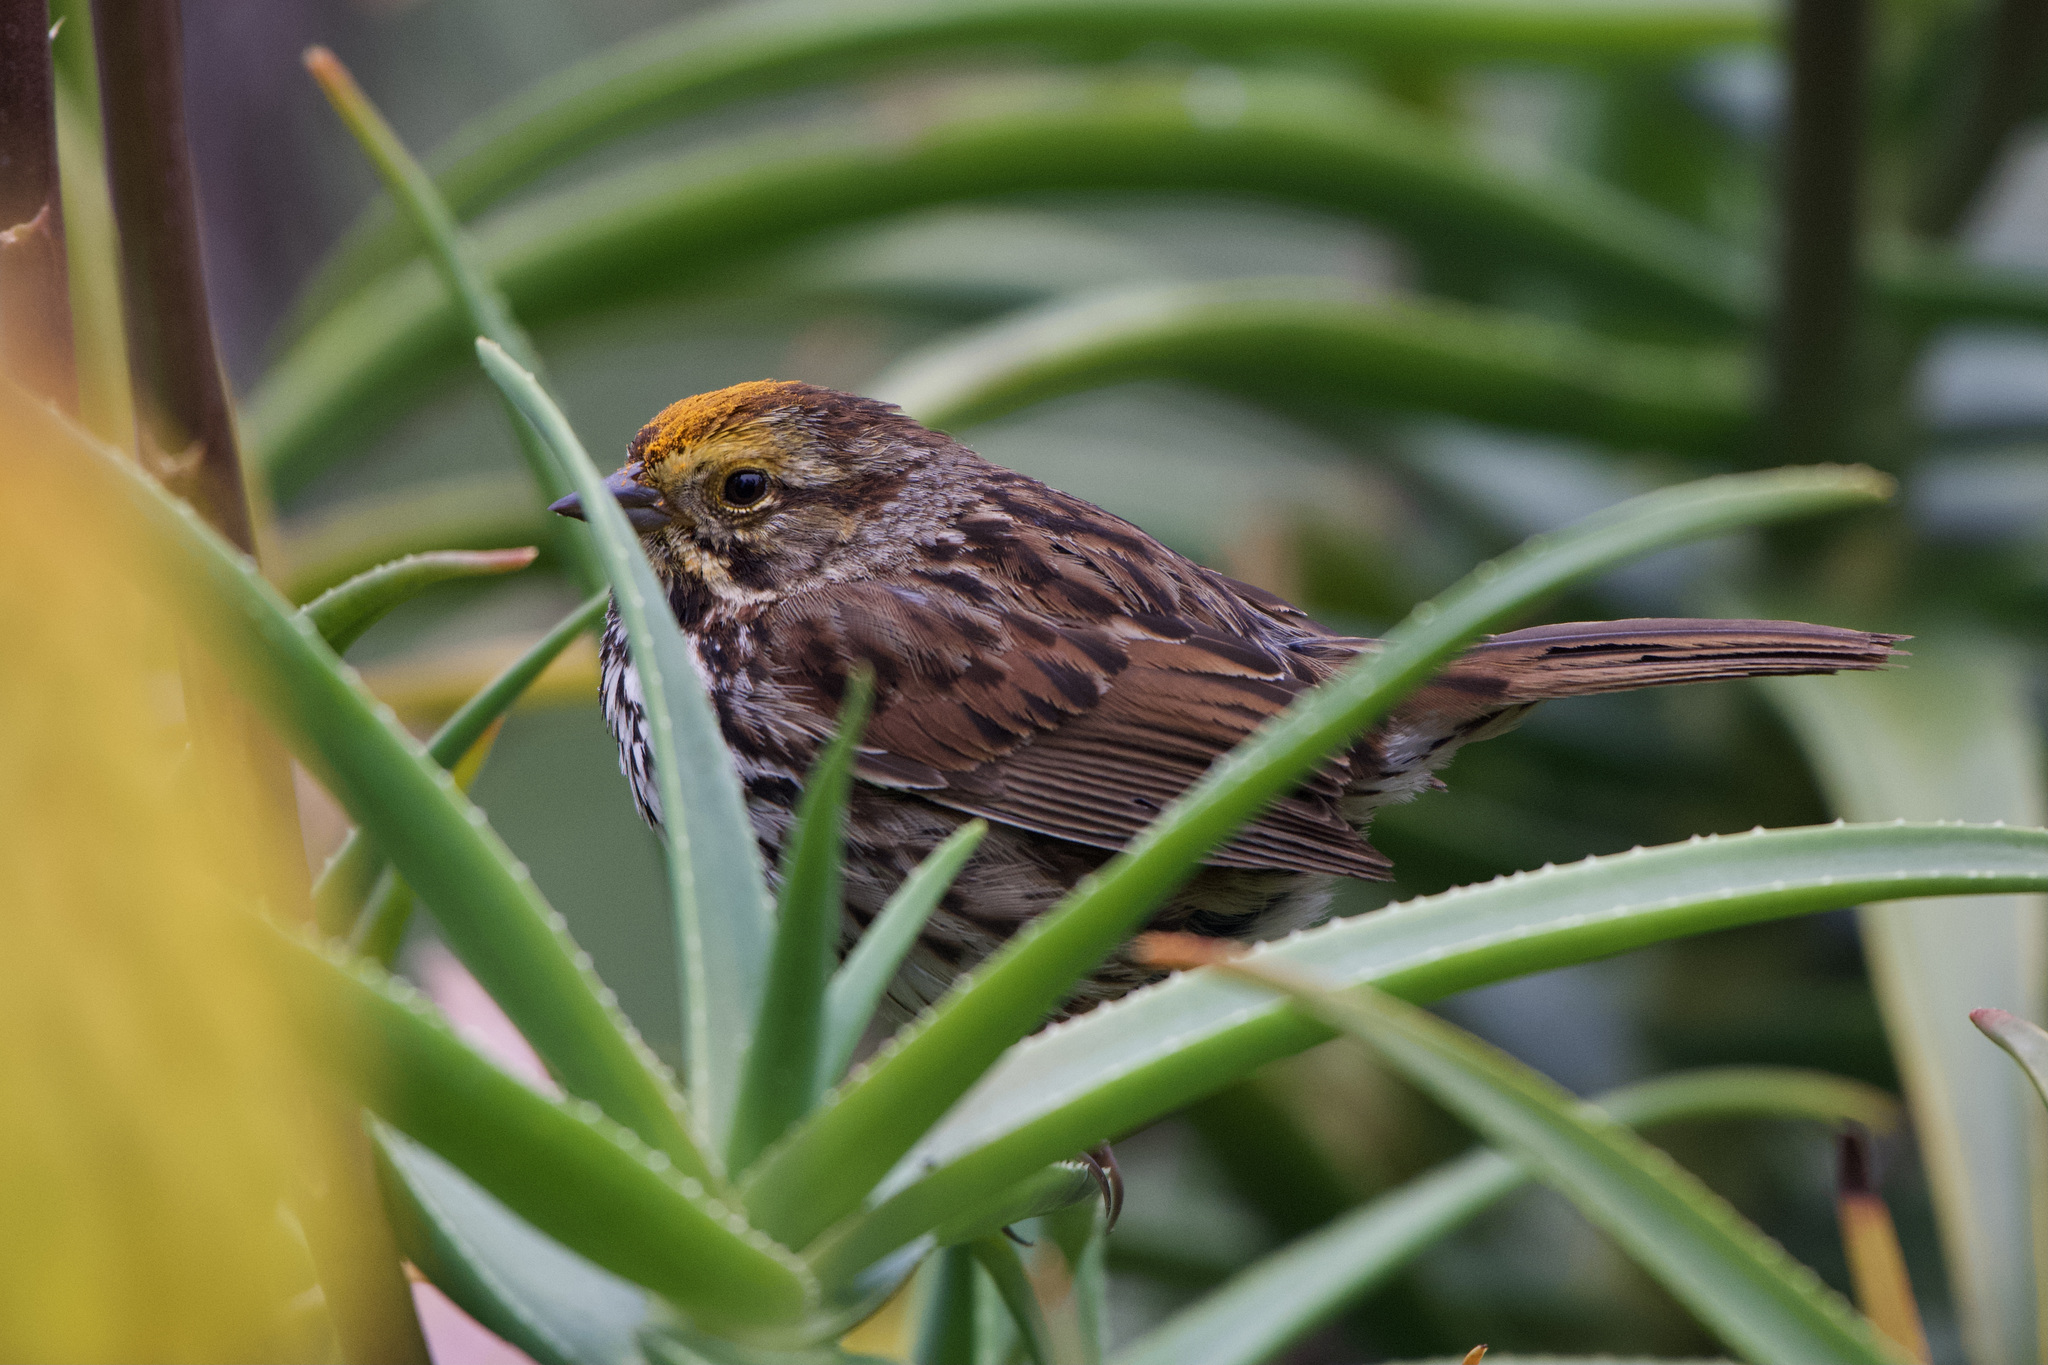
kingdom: Animalia
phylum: Chordata
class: Aves
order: Passeriformes
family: Passerellidae
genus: Melospiza
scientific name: Melospiza melodia
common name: Song sparrow
